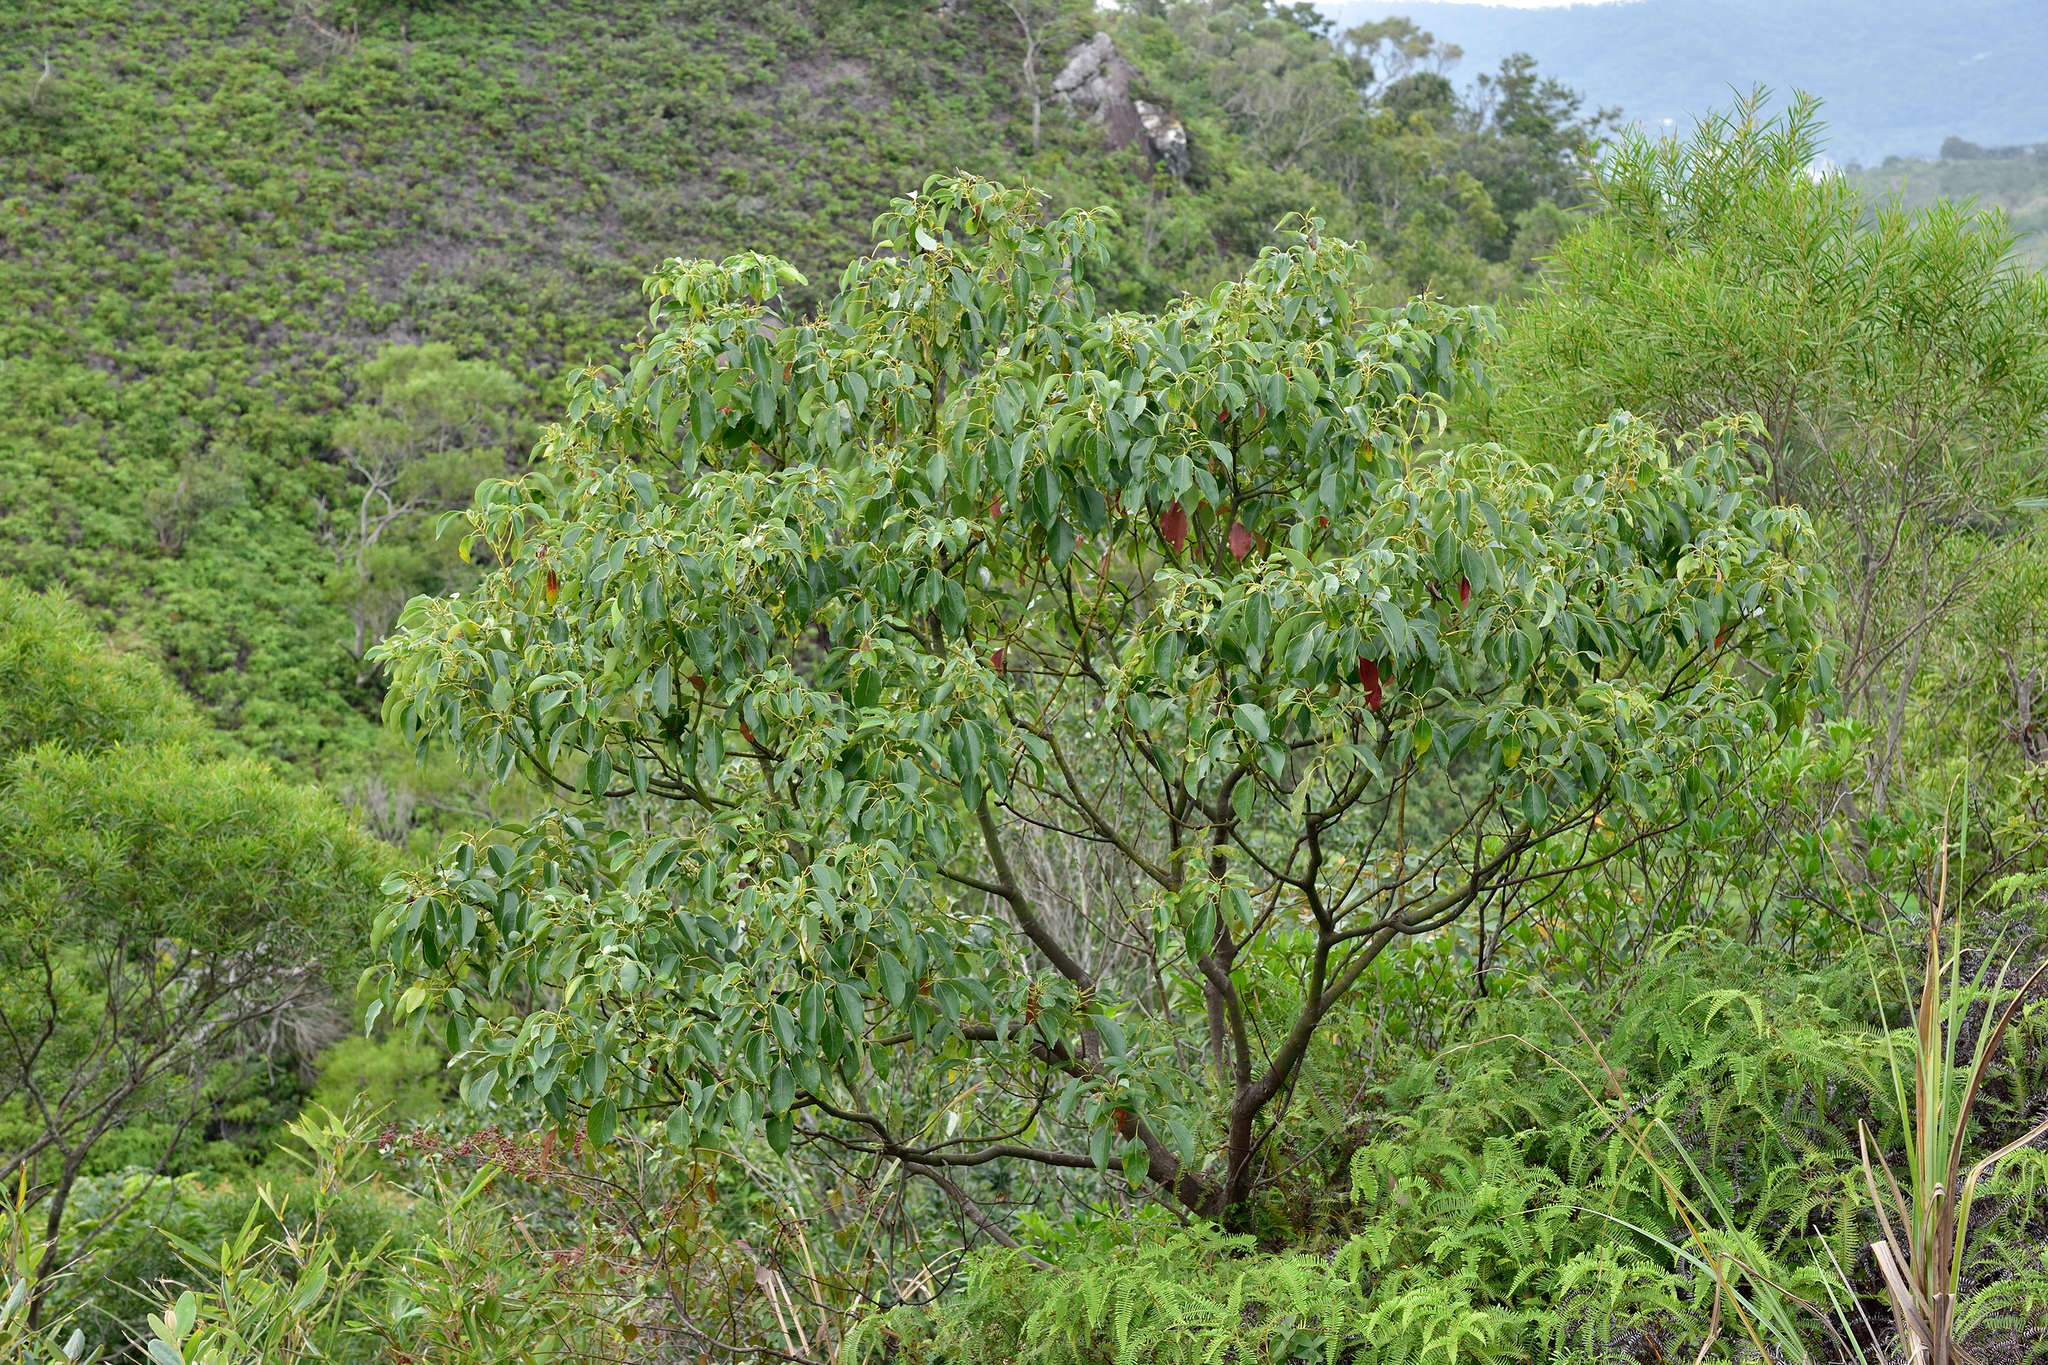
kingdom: Plantae
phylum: Tracheophyta
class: Magnoliopsida
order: Laurales
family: Lauraceae
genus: Cinnamomum
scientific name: Cinnamomum camphora
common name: Camphortree
